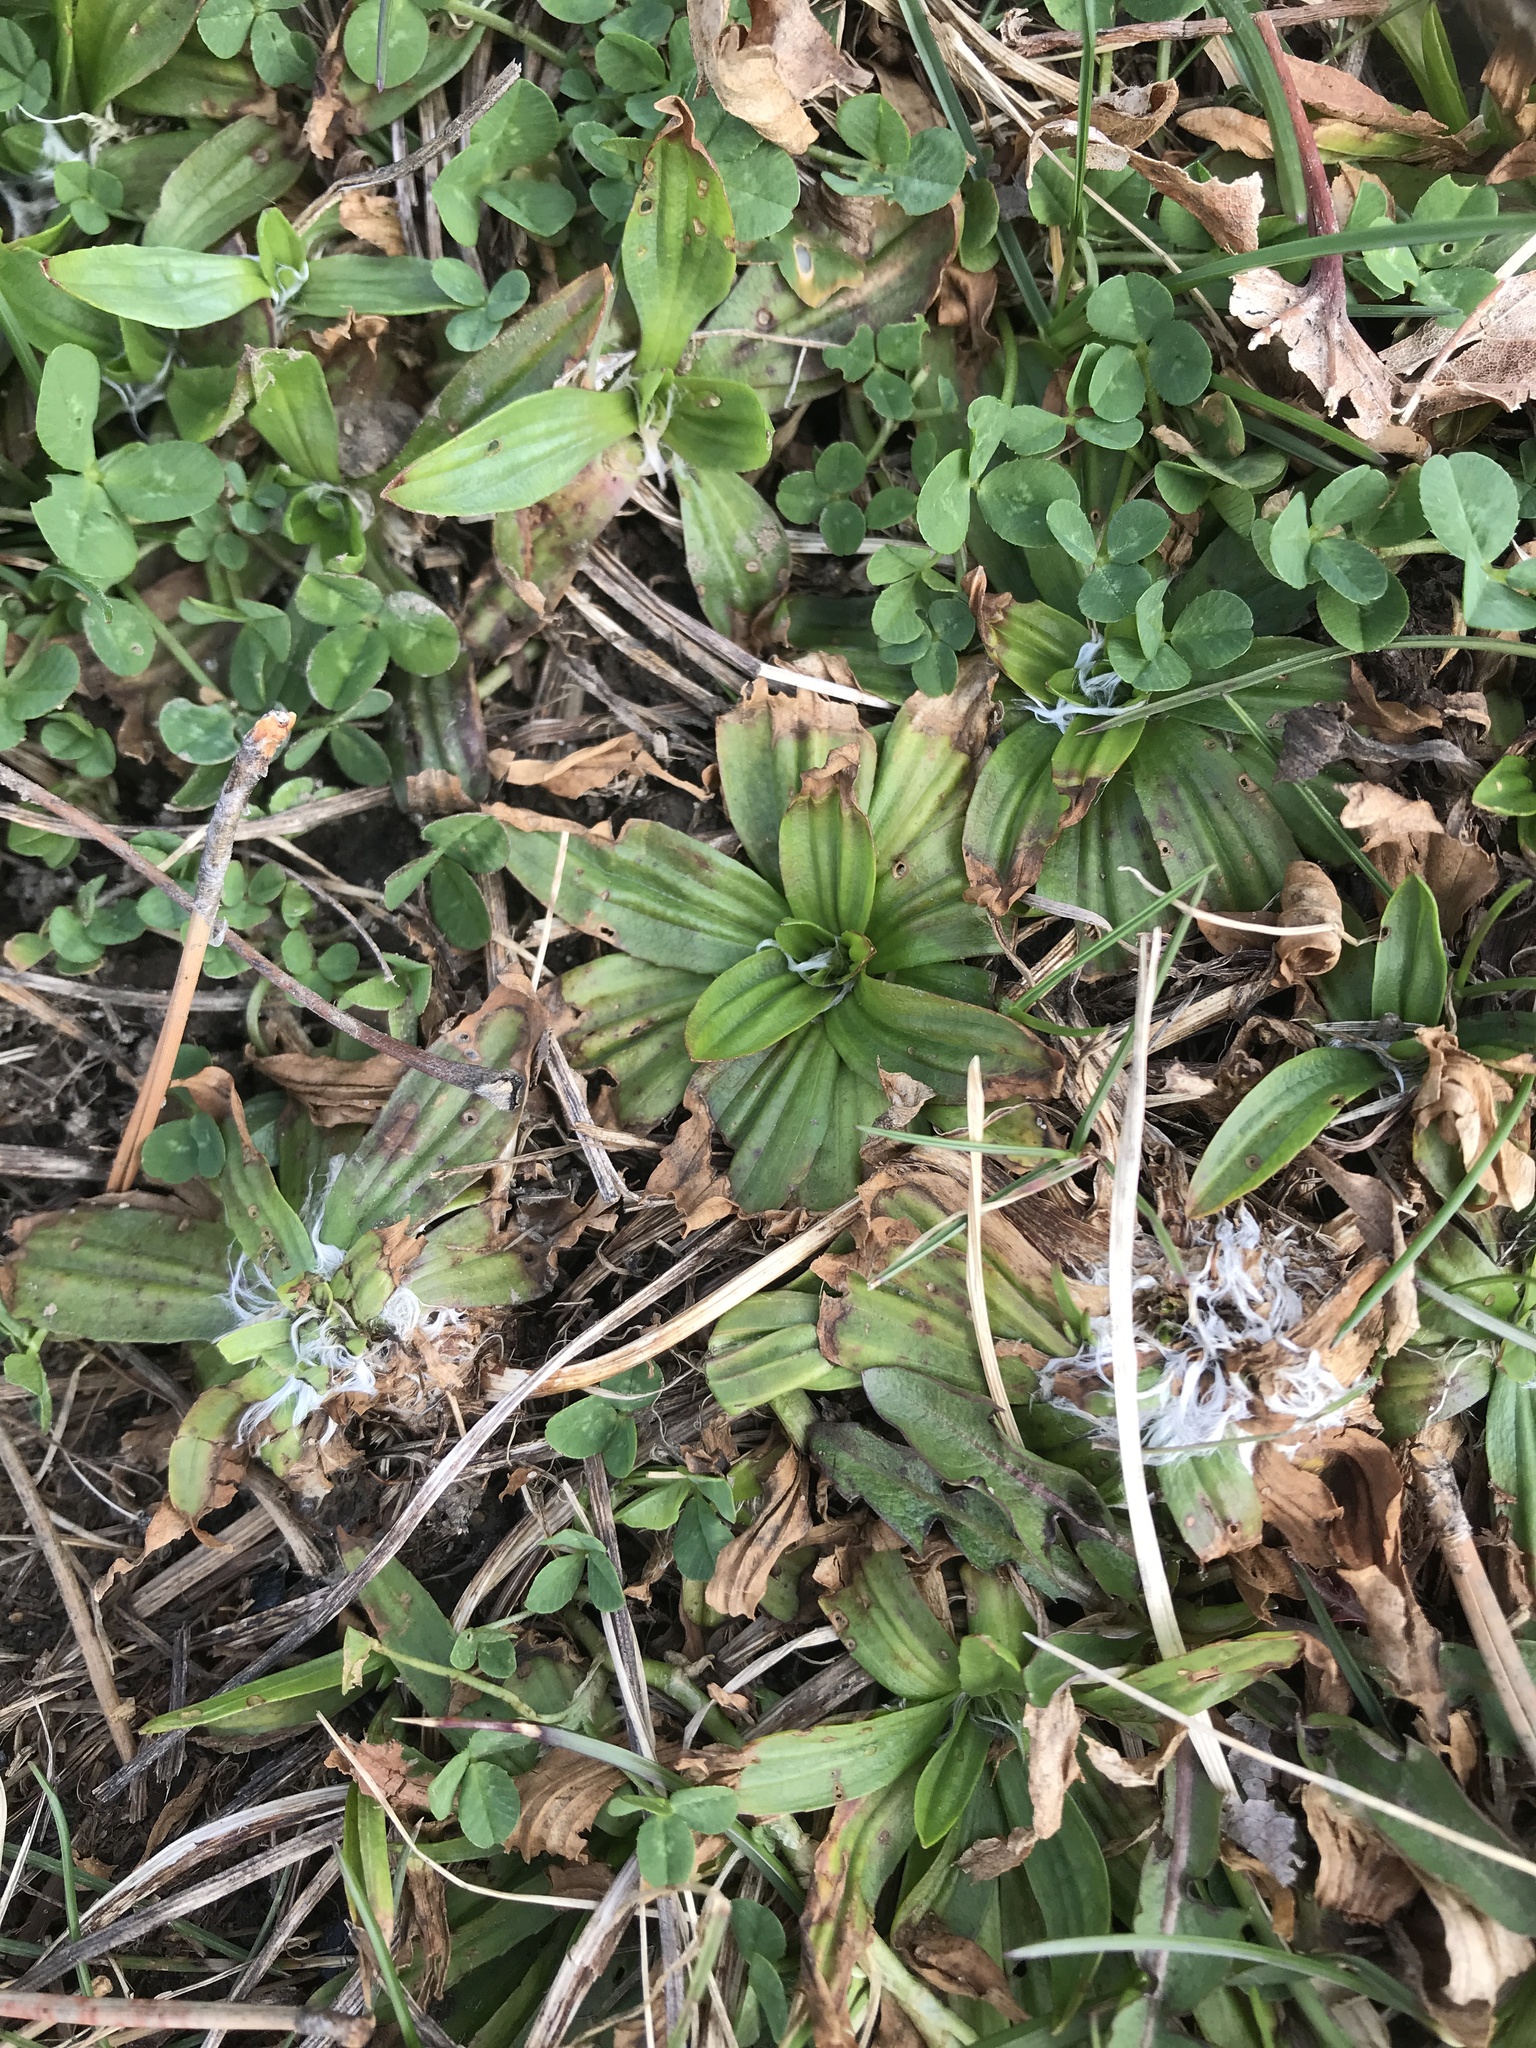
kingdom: Plantae
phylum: Tracheophyta
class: Magnoliopsida
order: Lamiales
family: Plantaginaceae
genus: Plantago
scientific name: Plantago lanceolata
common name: Ribwort plantain
